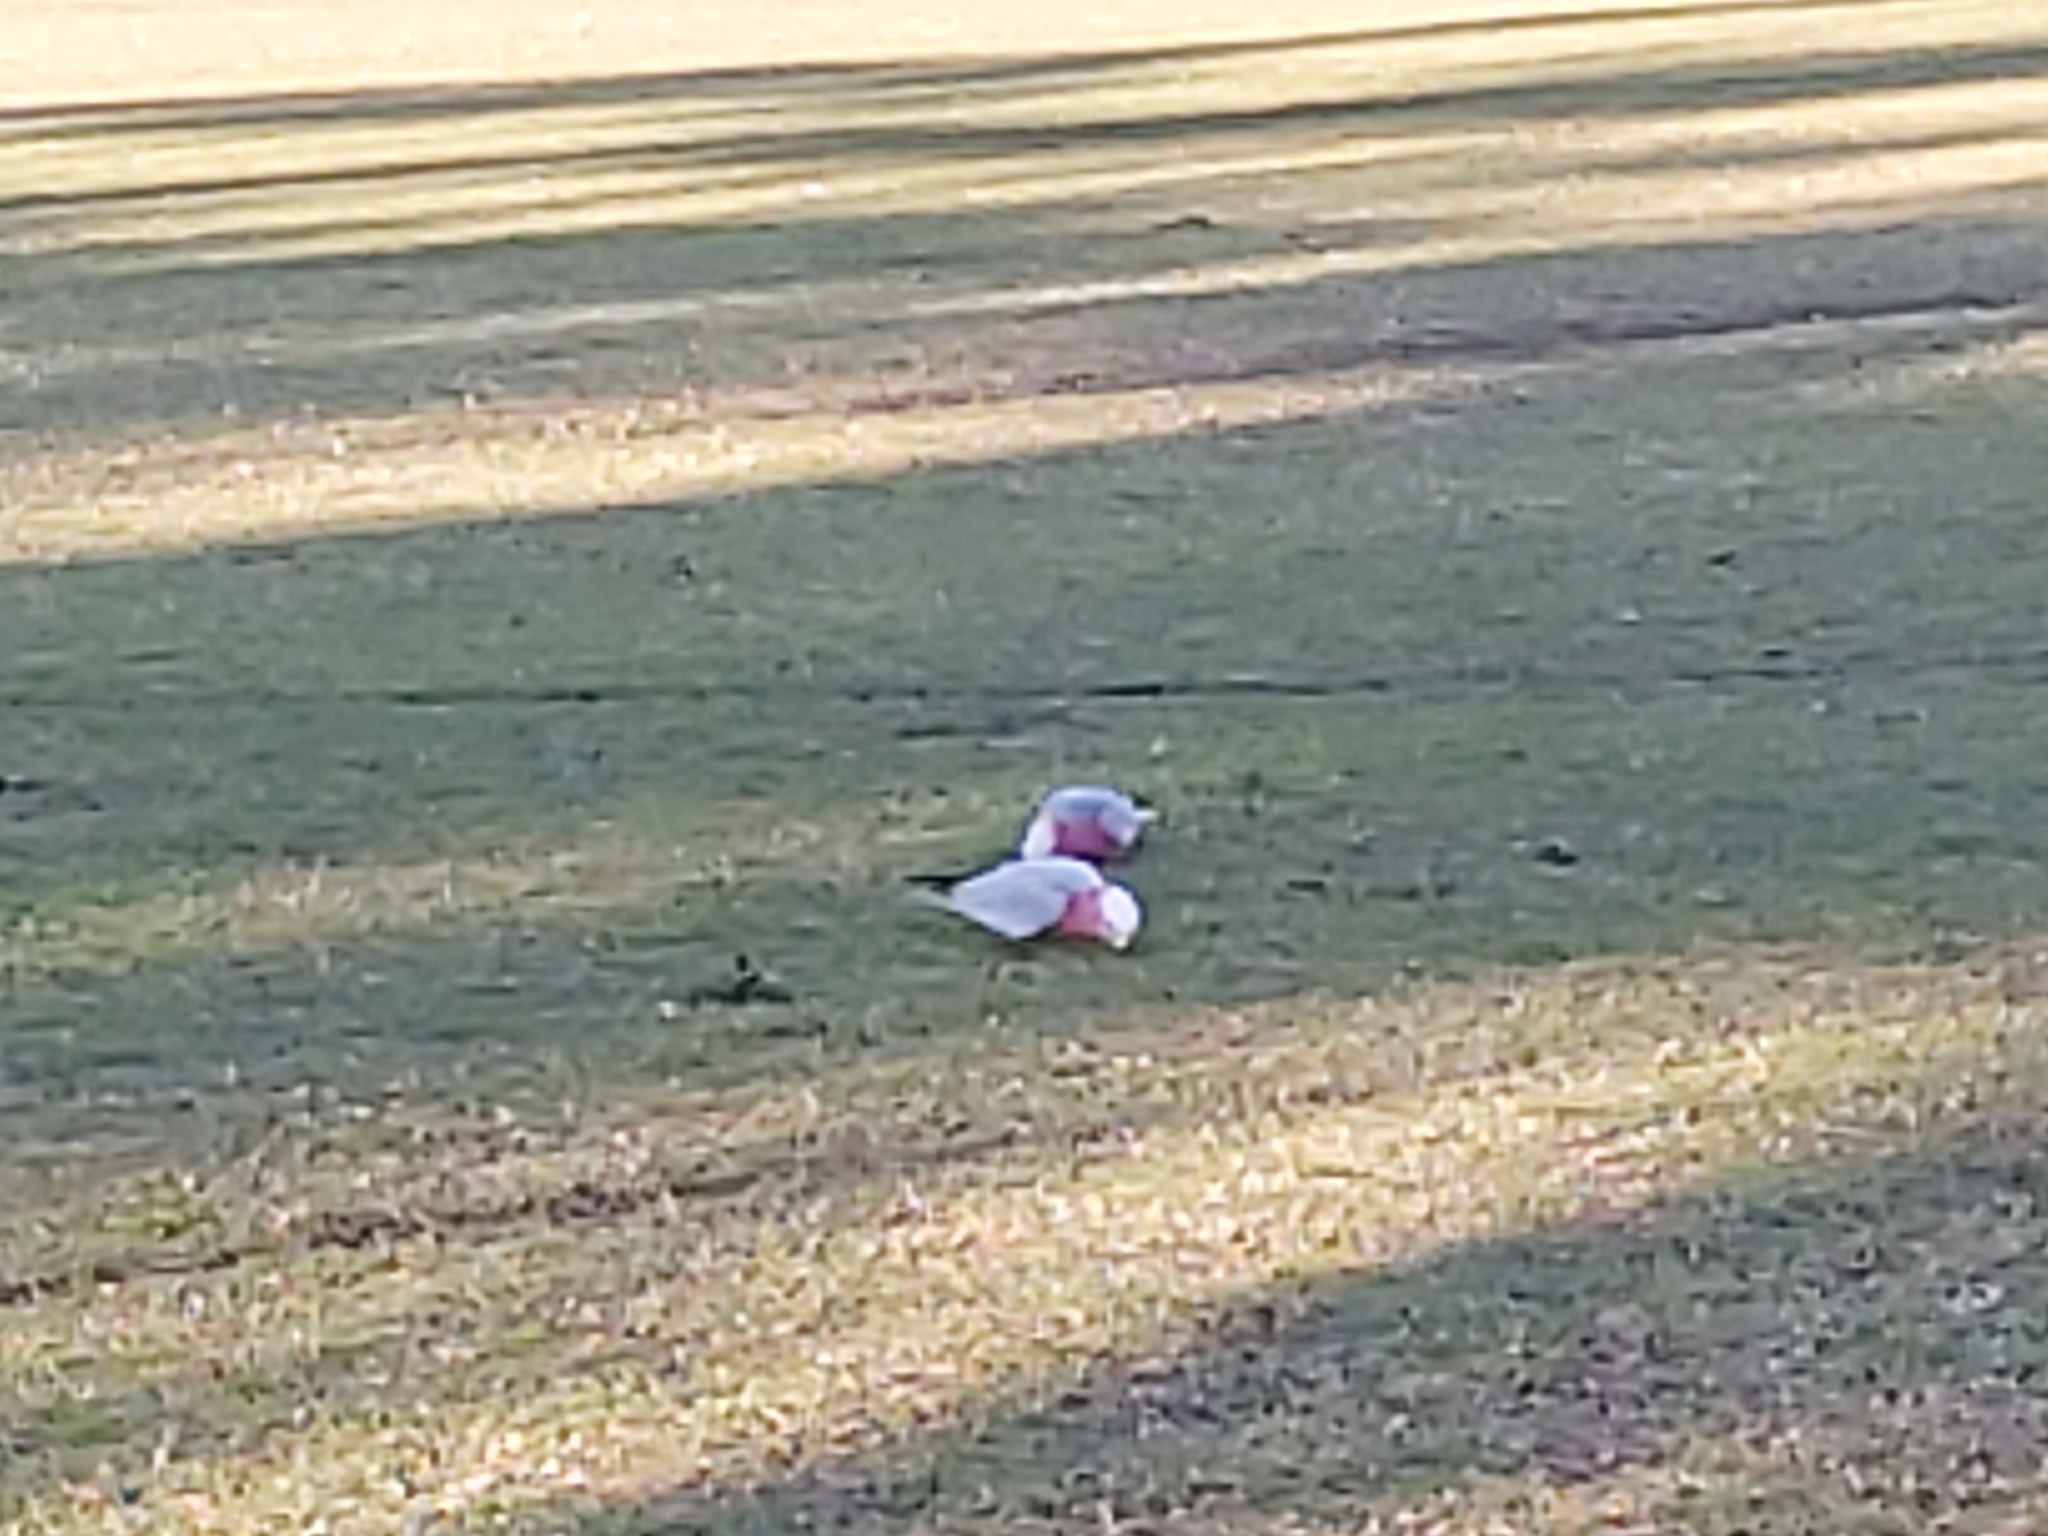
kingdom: Animalia
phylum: Chordata
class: Aves
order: Psittaciformes
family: Psittacidae
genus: Eolophus
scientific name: Eolophus roseicapilla
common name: Galah
